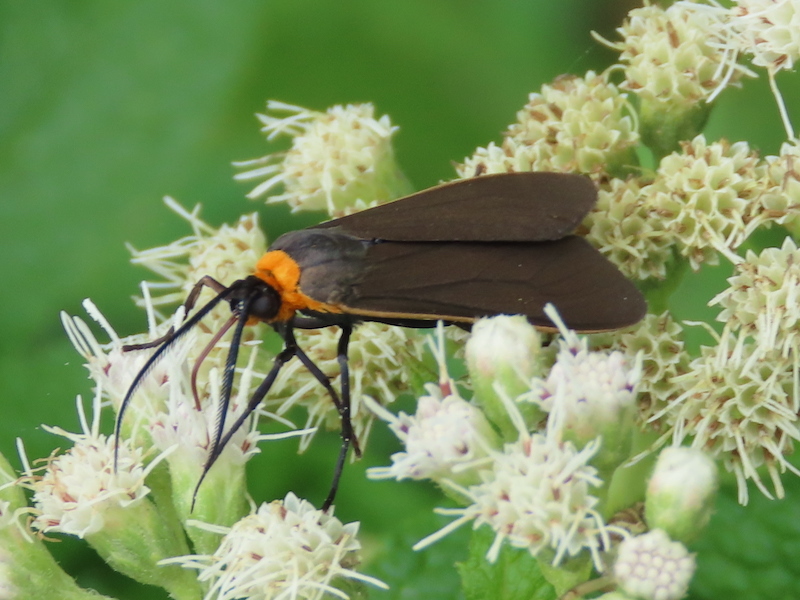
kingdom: Animalia
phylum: Arthropoda
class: Insecta
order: Lepidoptera
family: Erebidae
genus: Cisseps
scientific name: Cisseps fulvicollis
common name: Yellow-collared scape moth
